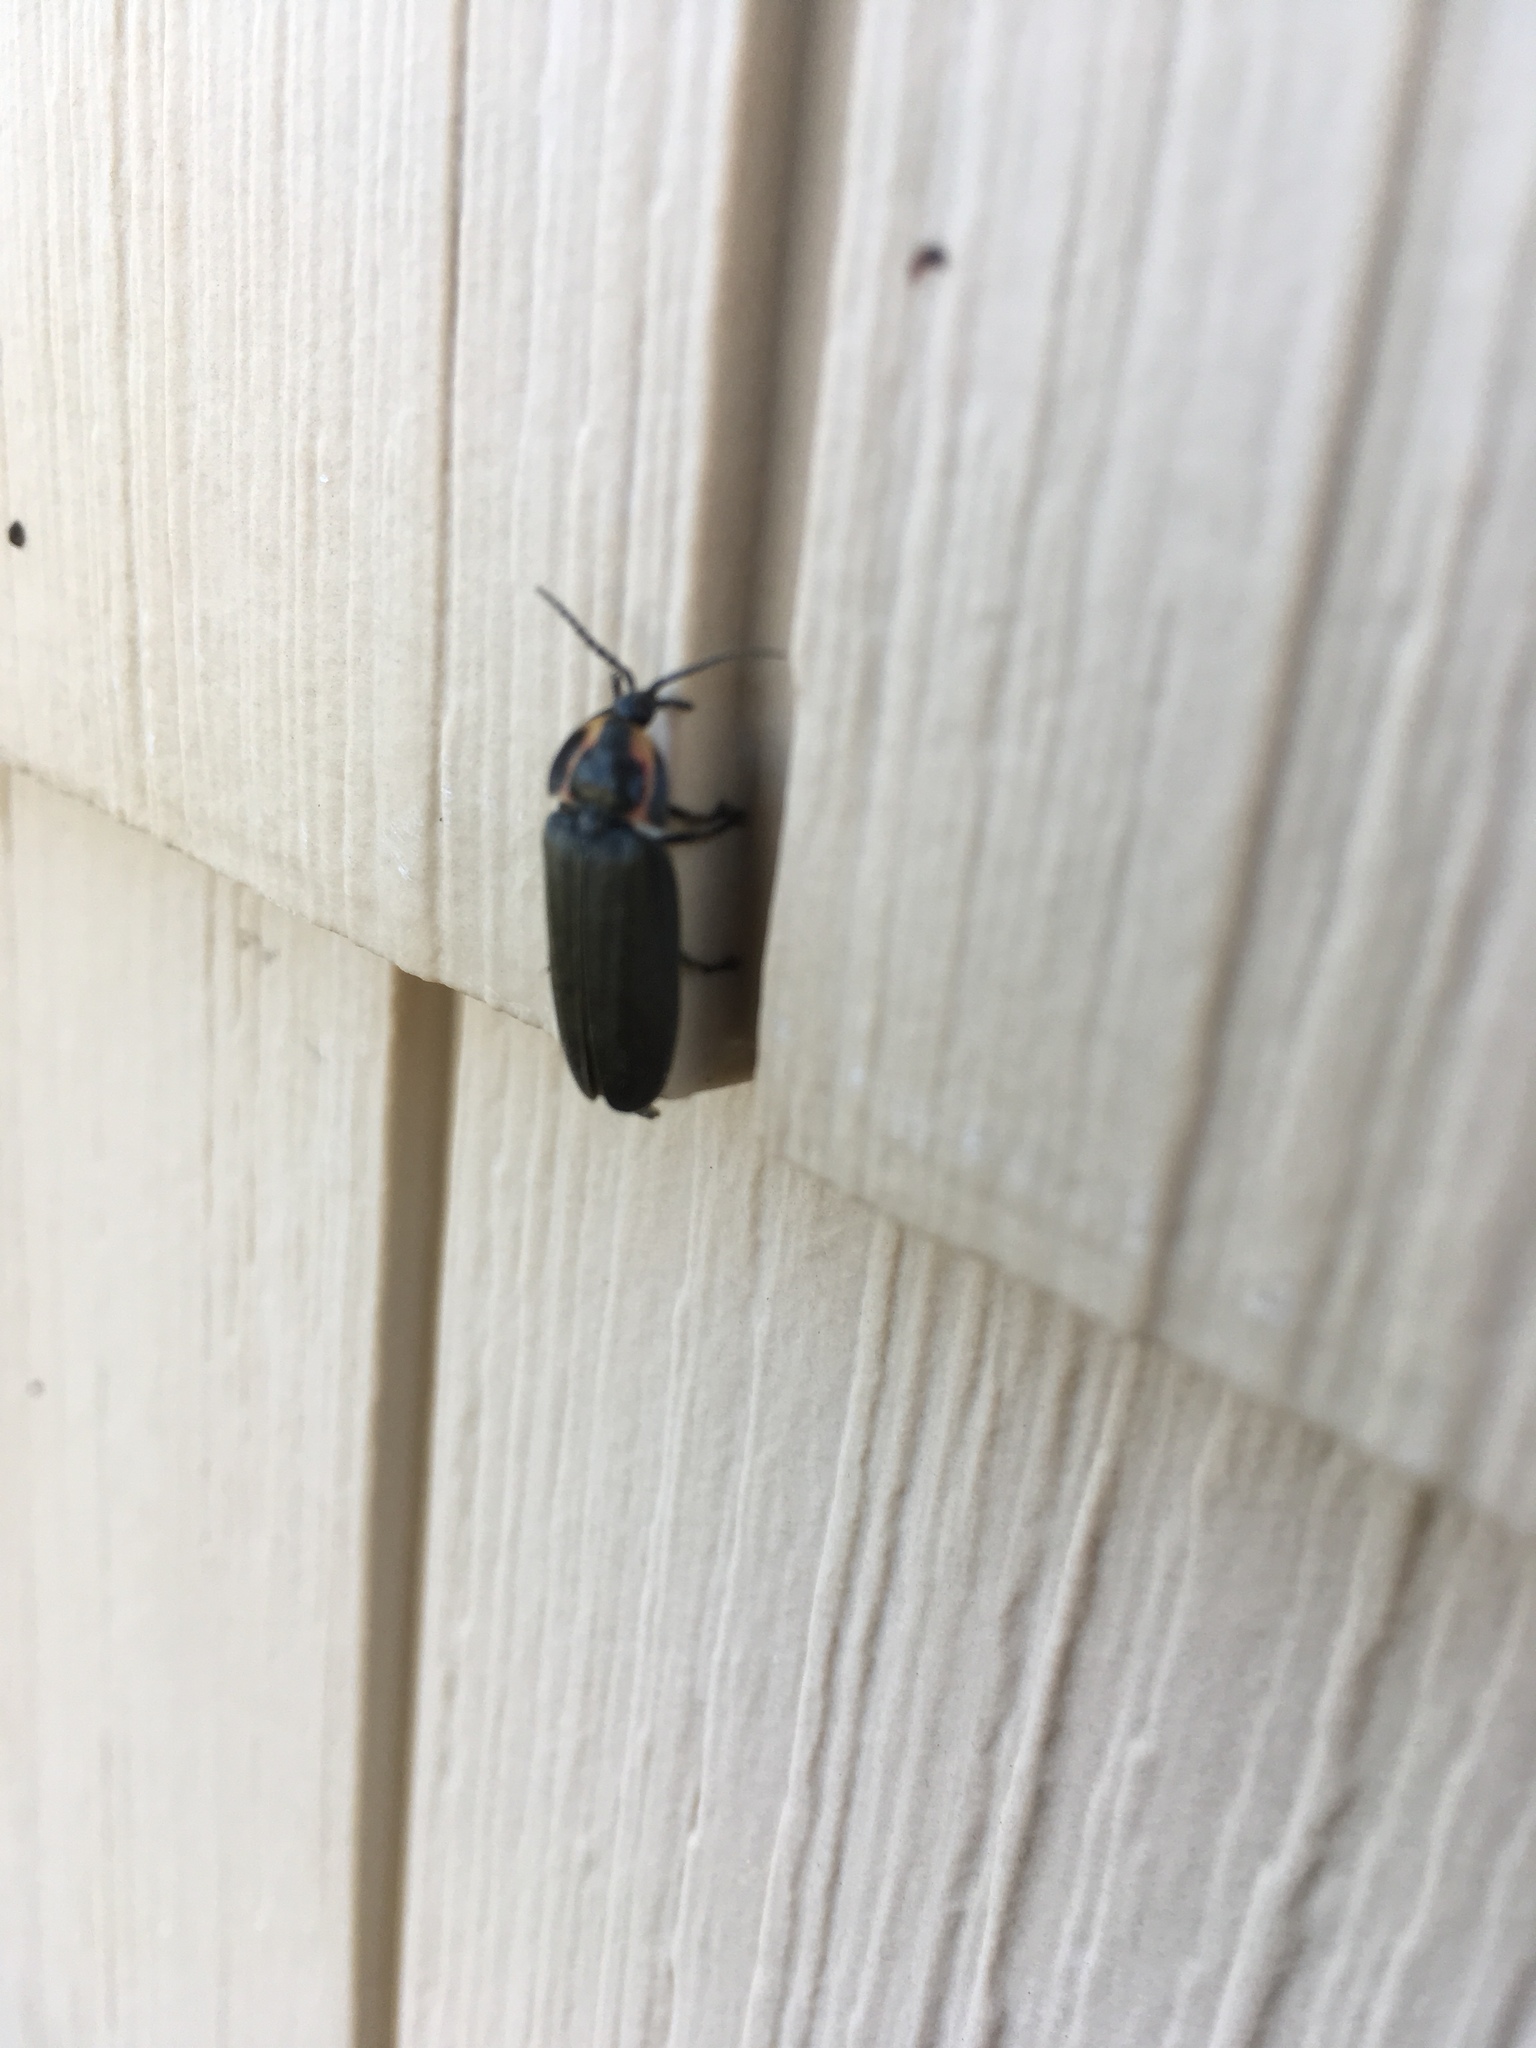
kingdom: Animalia
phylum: Arthropoda
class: Insecta
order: Coleoptera
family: Lampyridae
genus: Photinus
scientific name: Photinus corrusca
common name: Winter firefly
